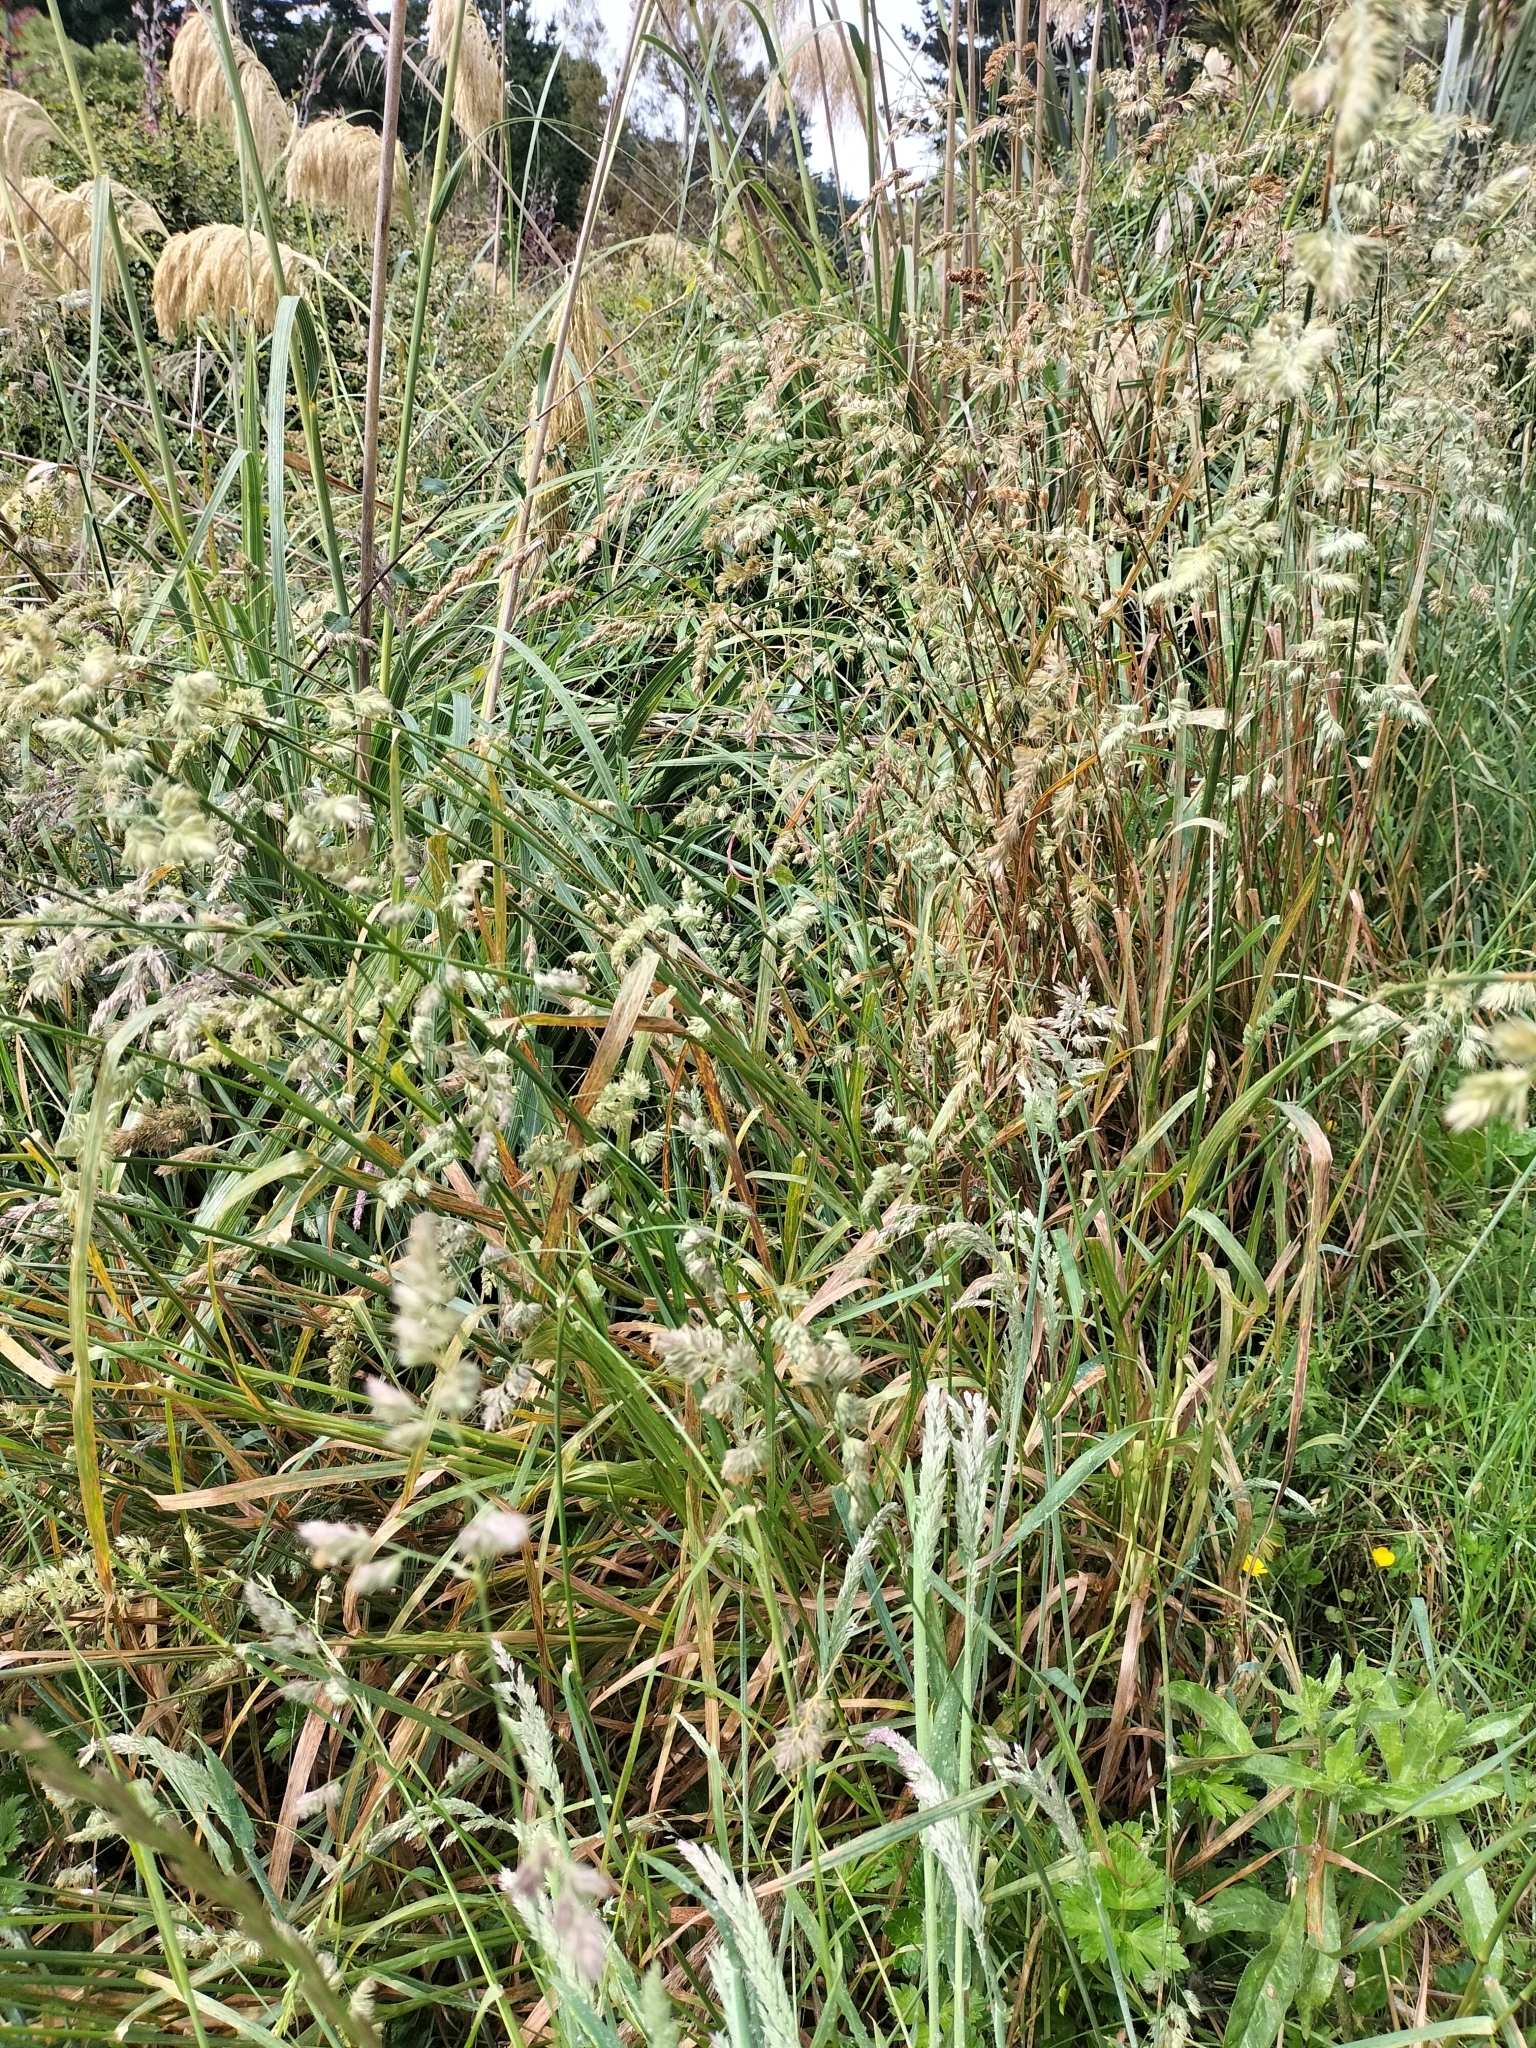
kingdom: Plantae
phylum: Tracheophyta
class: Liliopsida
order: Poales
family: Poaceae
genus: Dactylis
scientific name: Dactylis glomerata
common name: Orchardgrass
